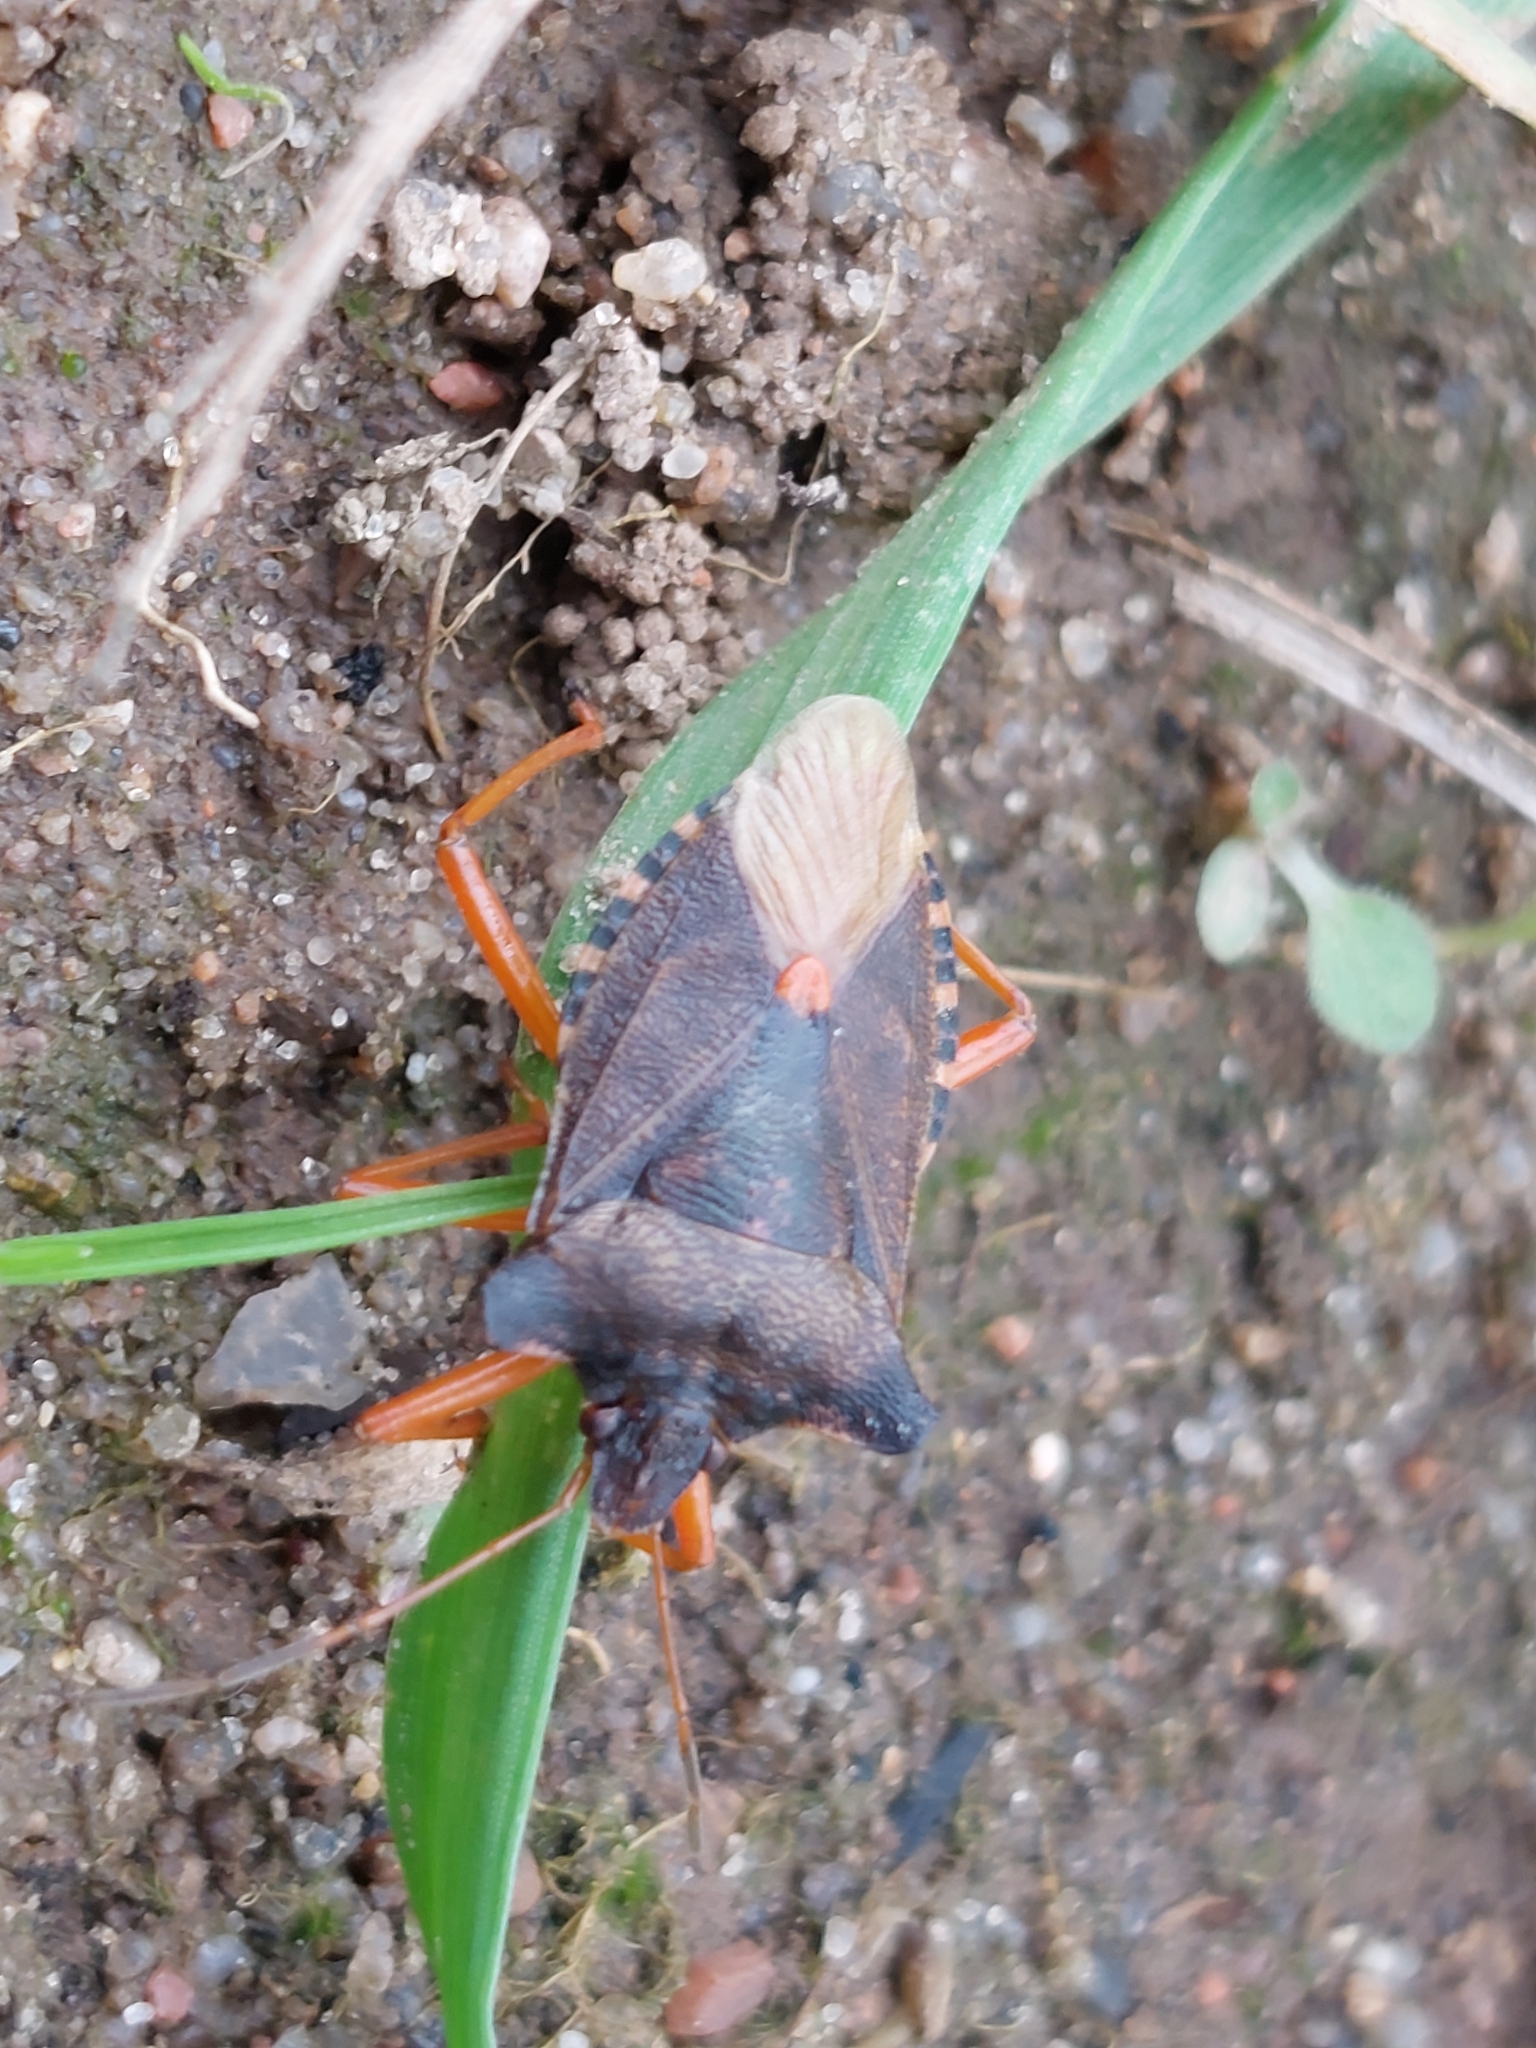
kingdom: Animalia
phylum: Arthropoda
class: Insecta
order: Hemiptera
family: Pentatomidae
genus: Pentatoma
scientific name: Pentatoma rufipes
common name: Forest bug
